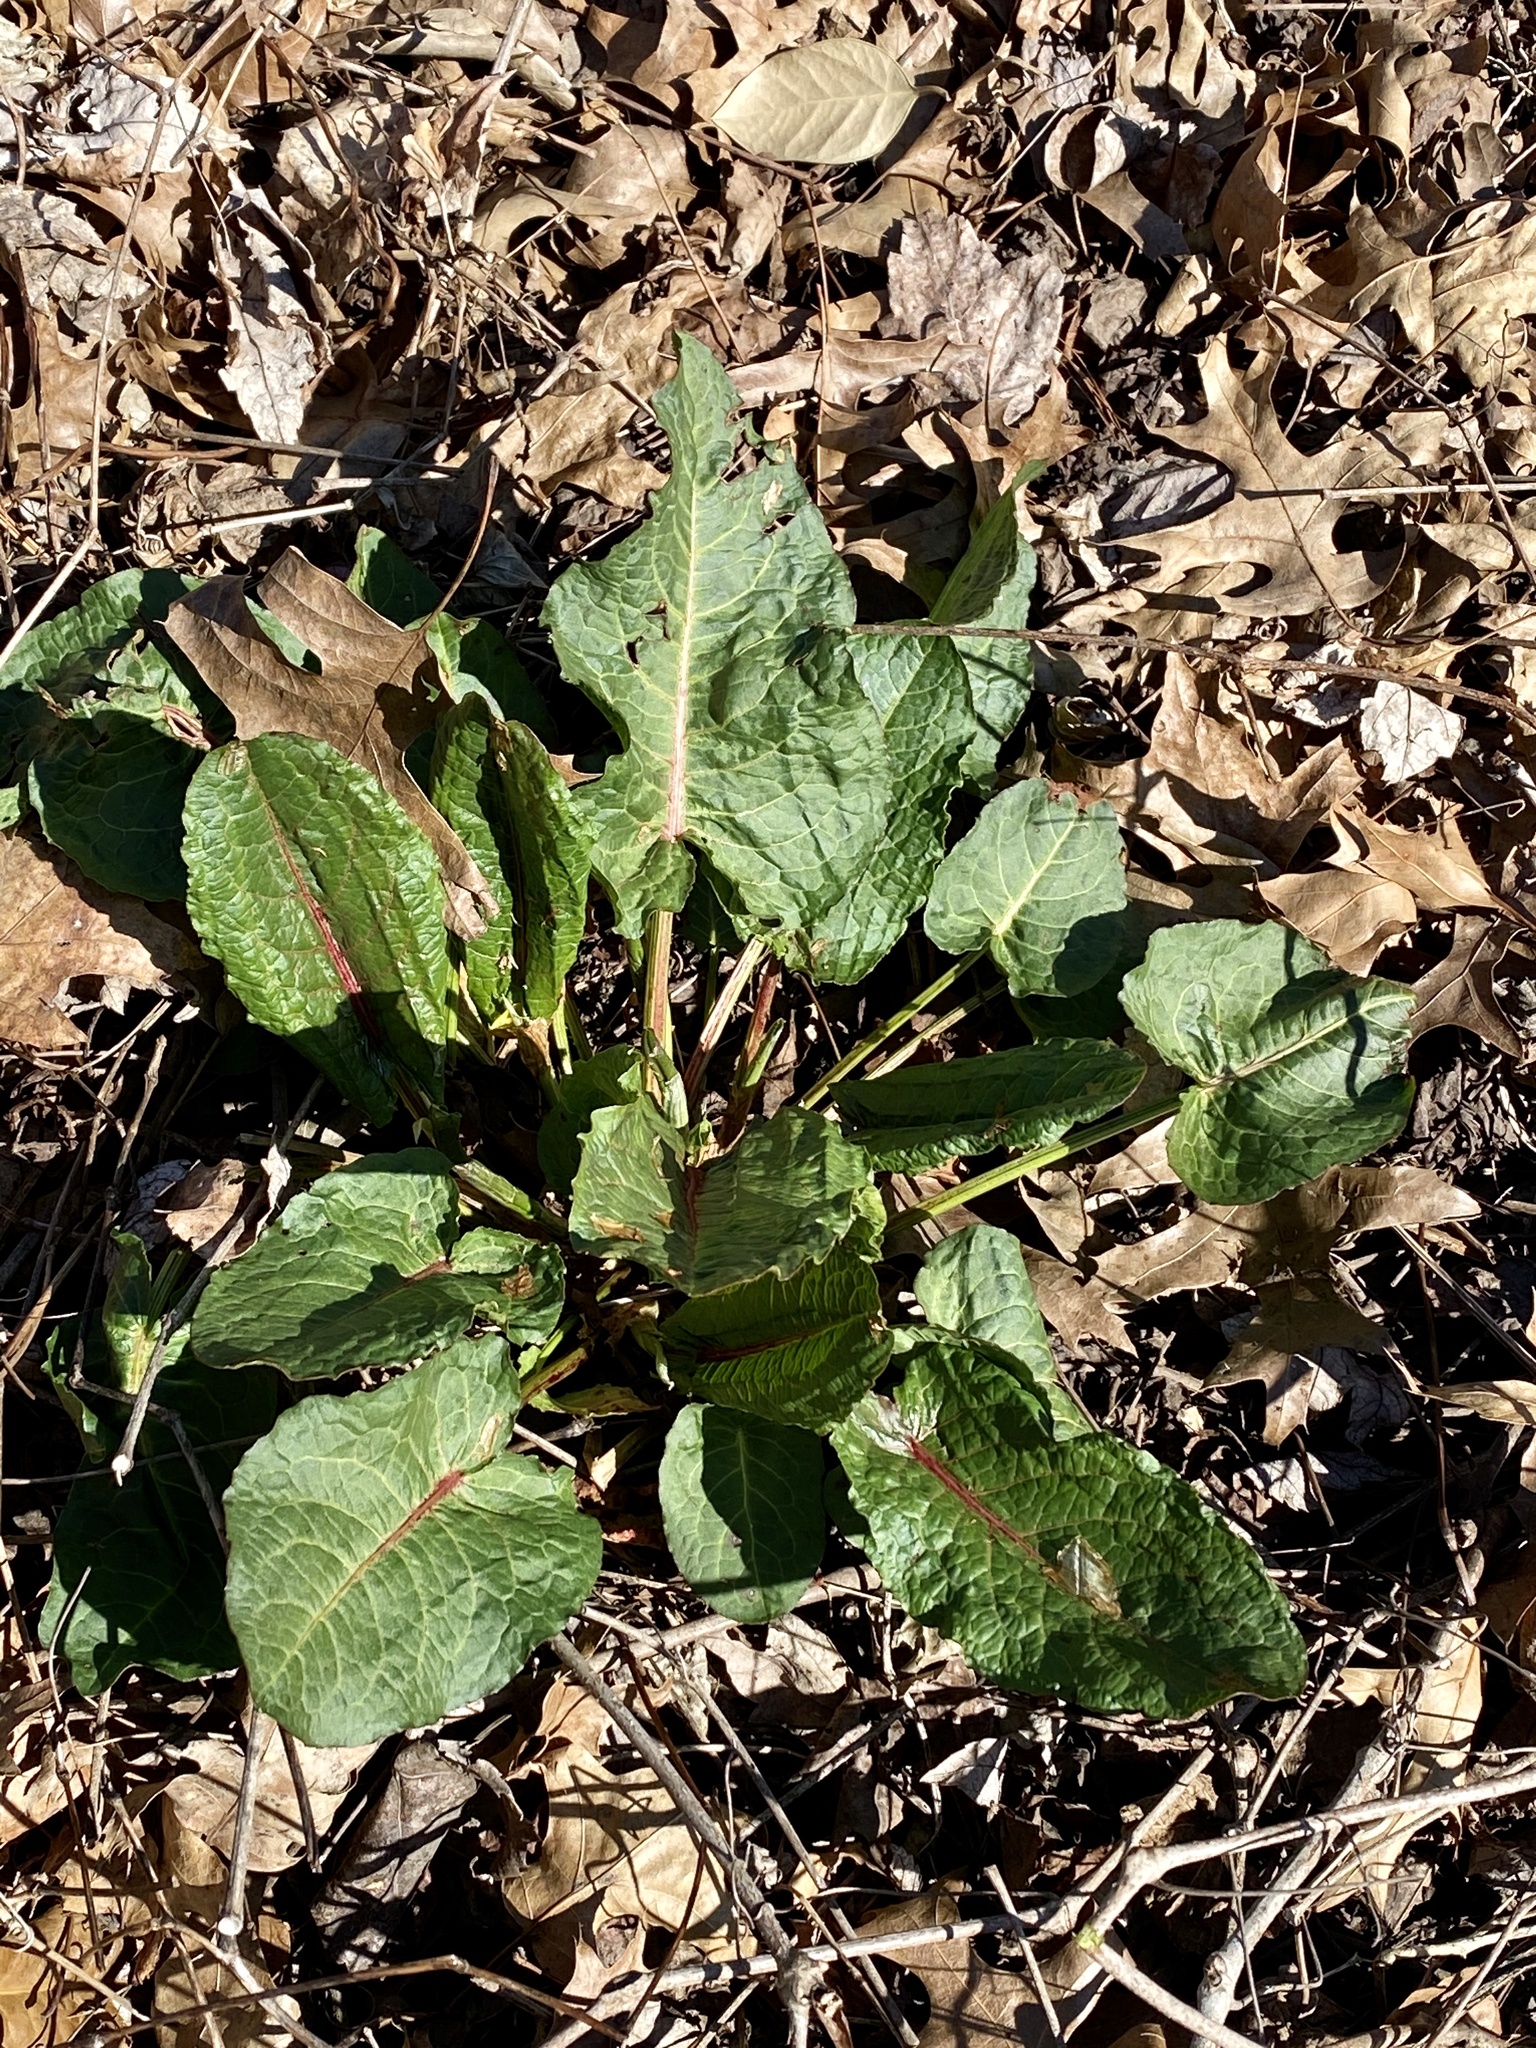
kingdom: Plantae
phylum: Tracheophyta
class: Magnoliopsida
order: Caryophyllales
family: Polygonaceae
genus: Rumex
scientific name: Rumex obtusifolius
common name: Bitter dock
